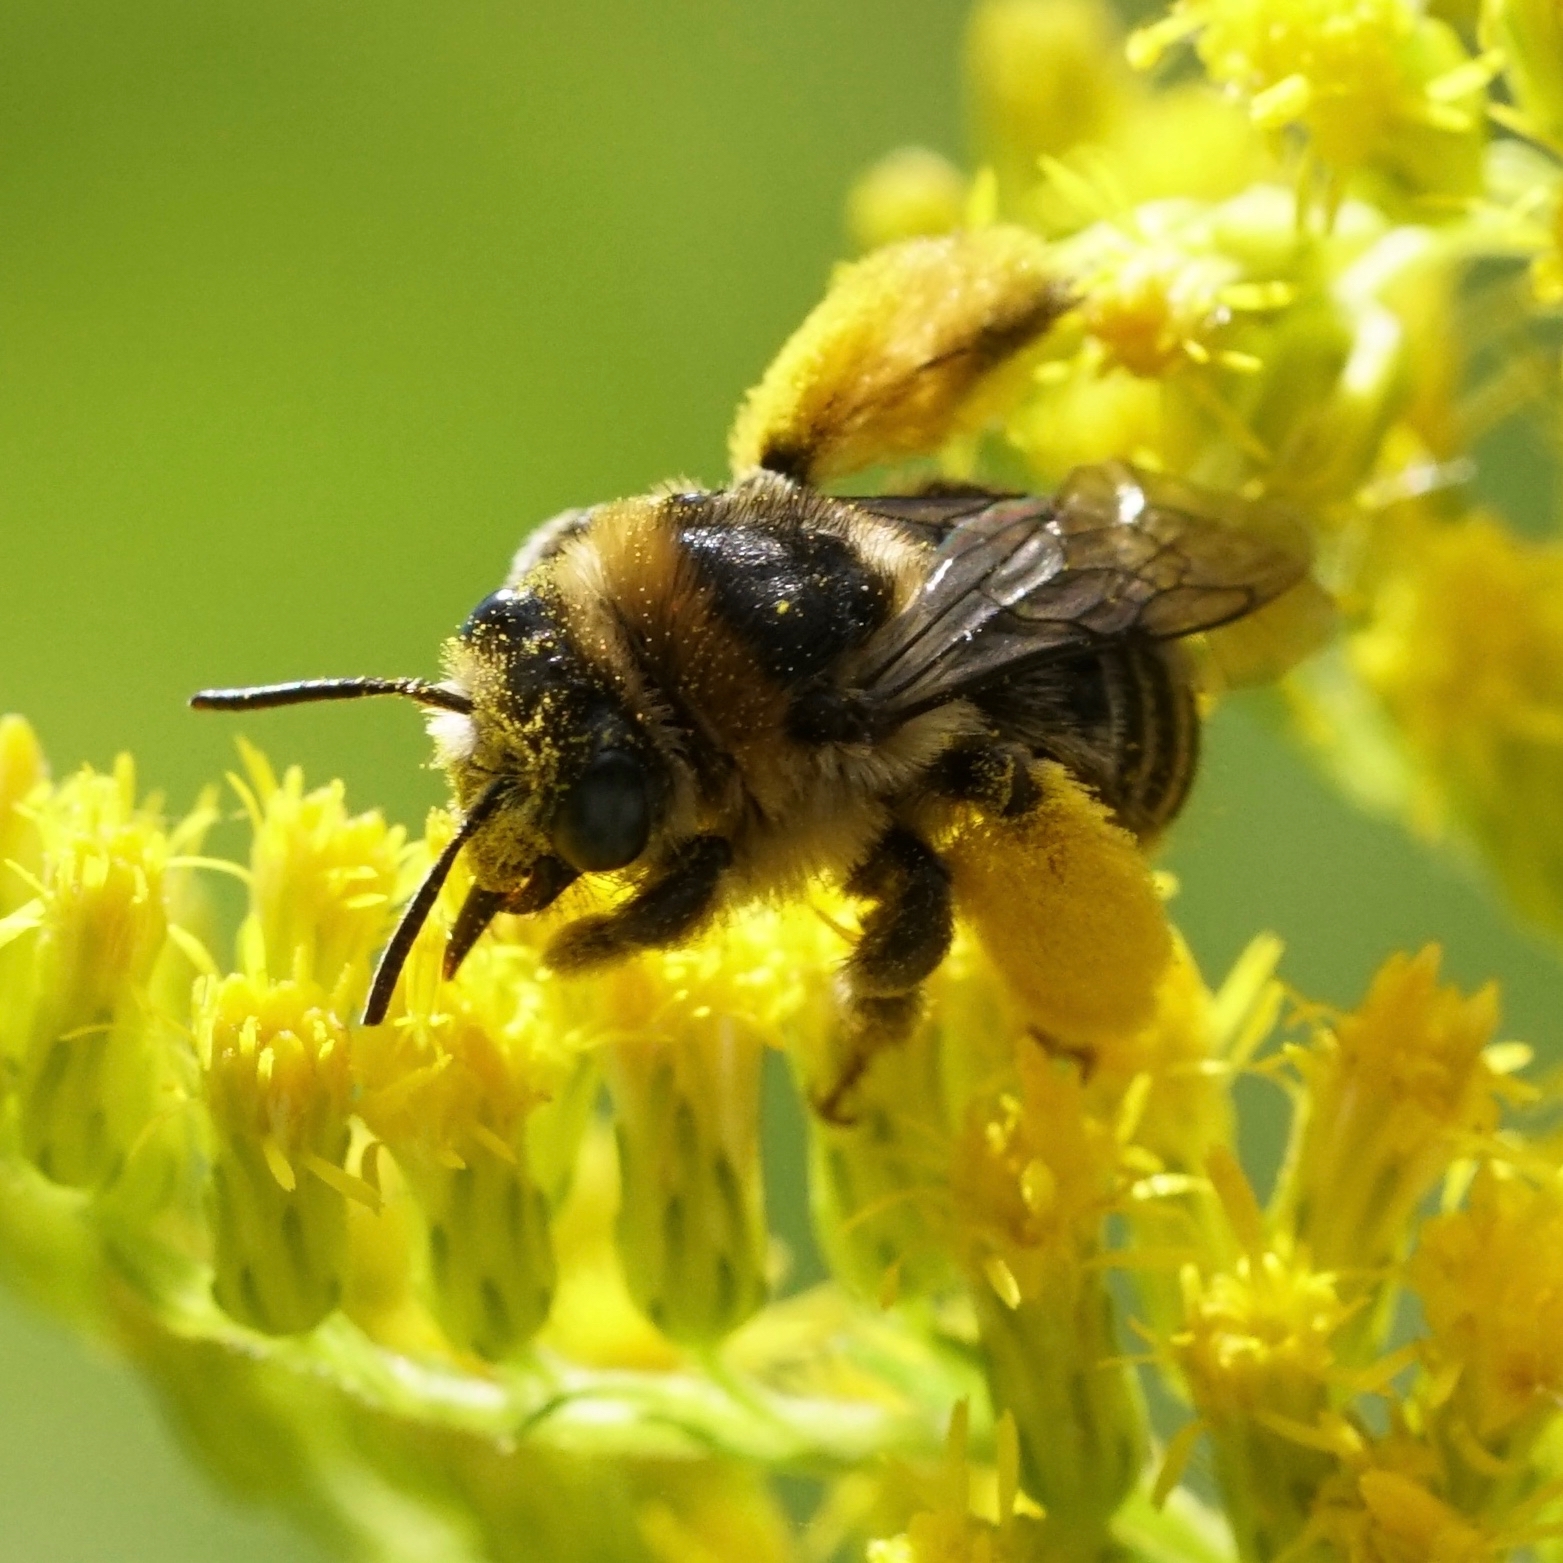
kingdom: Animalia
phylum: Arthropoda
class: Insecta
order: Hymenoptera
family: Apidae
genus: Melissodes
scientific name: Melissodes druriellus
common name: Drury's long-horned bee
